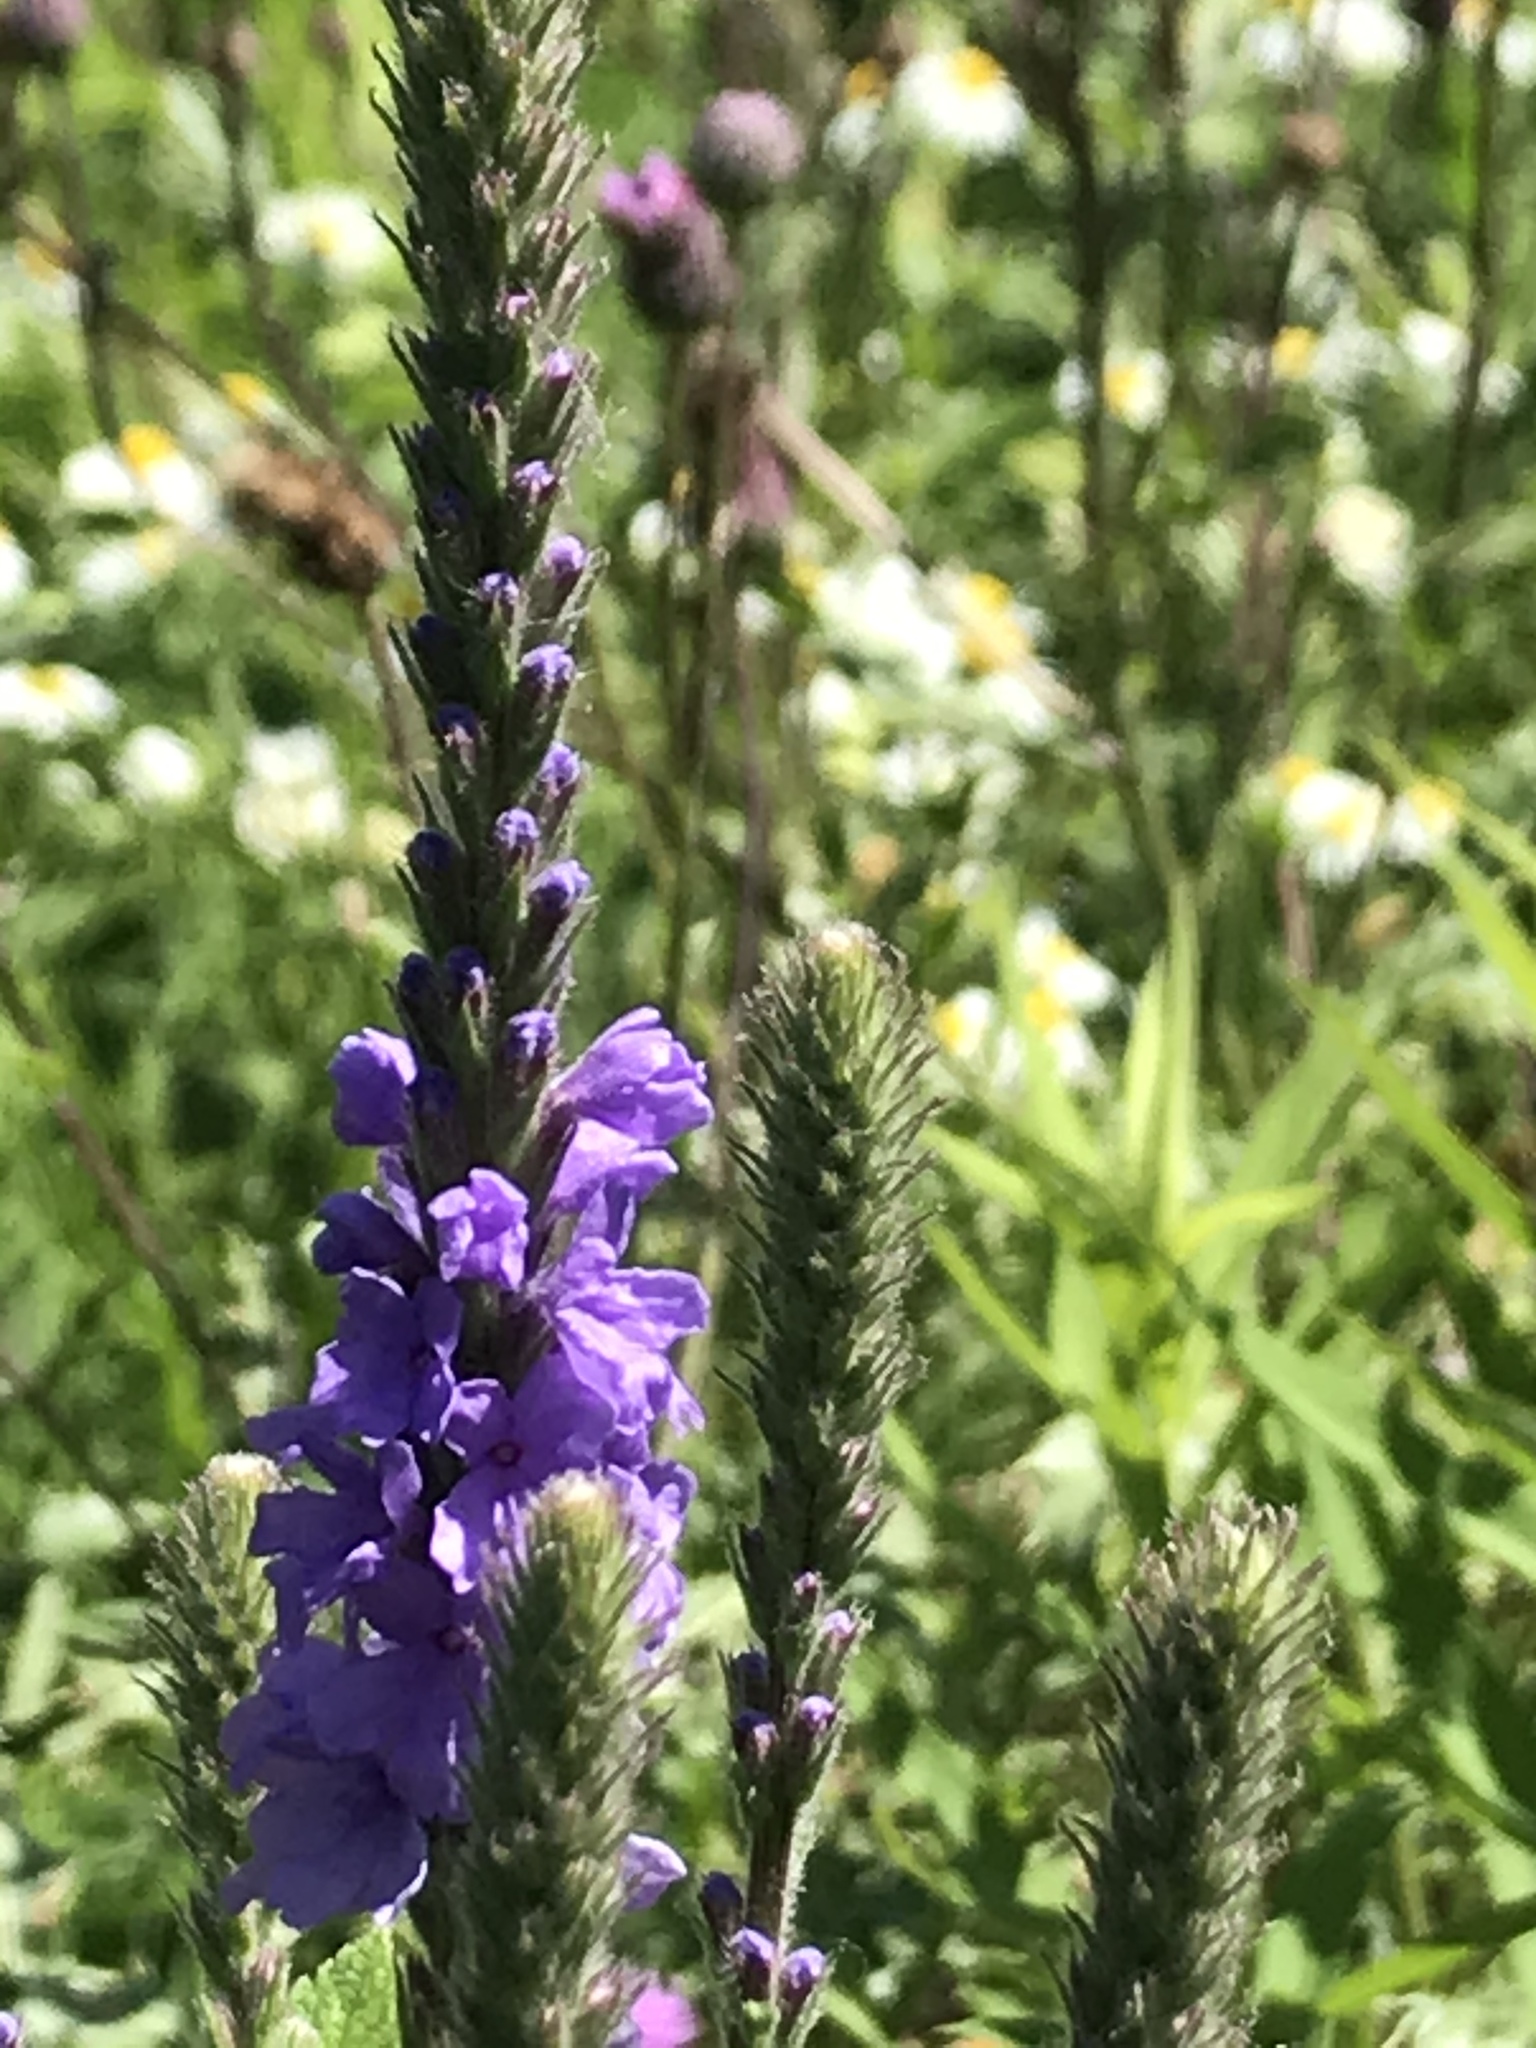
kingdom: Plantae
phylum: Tracheophyta
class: Magnoliopsida
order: Lamiales
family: Verbenaceae
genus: Verbena
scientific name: Verbena stricta
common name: Hoary vervain
